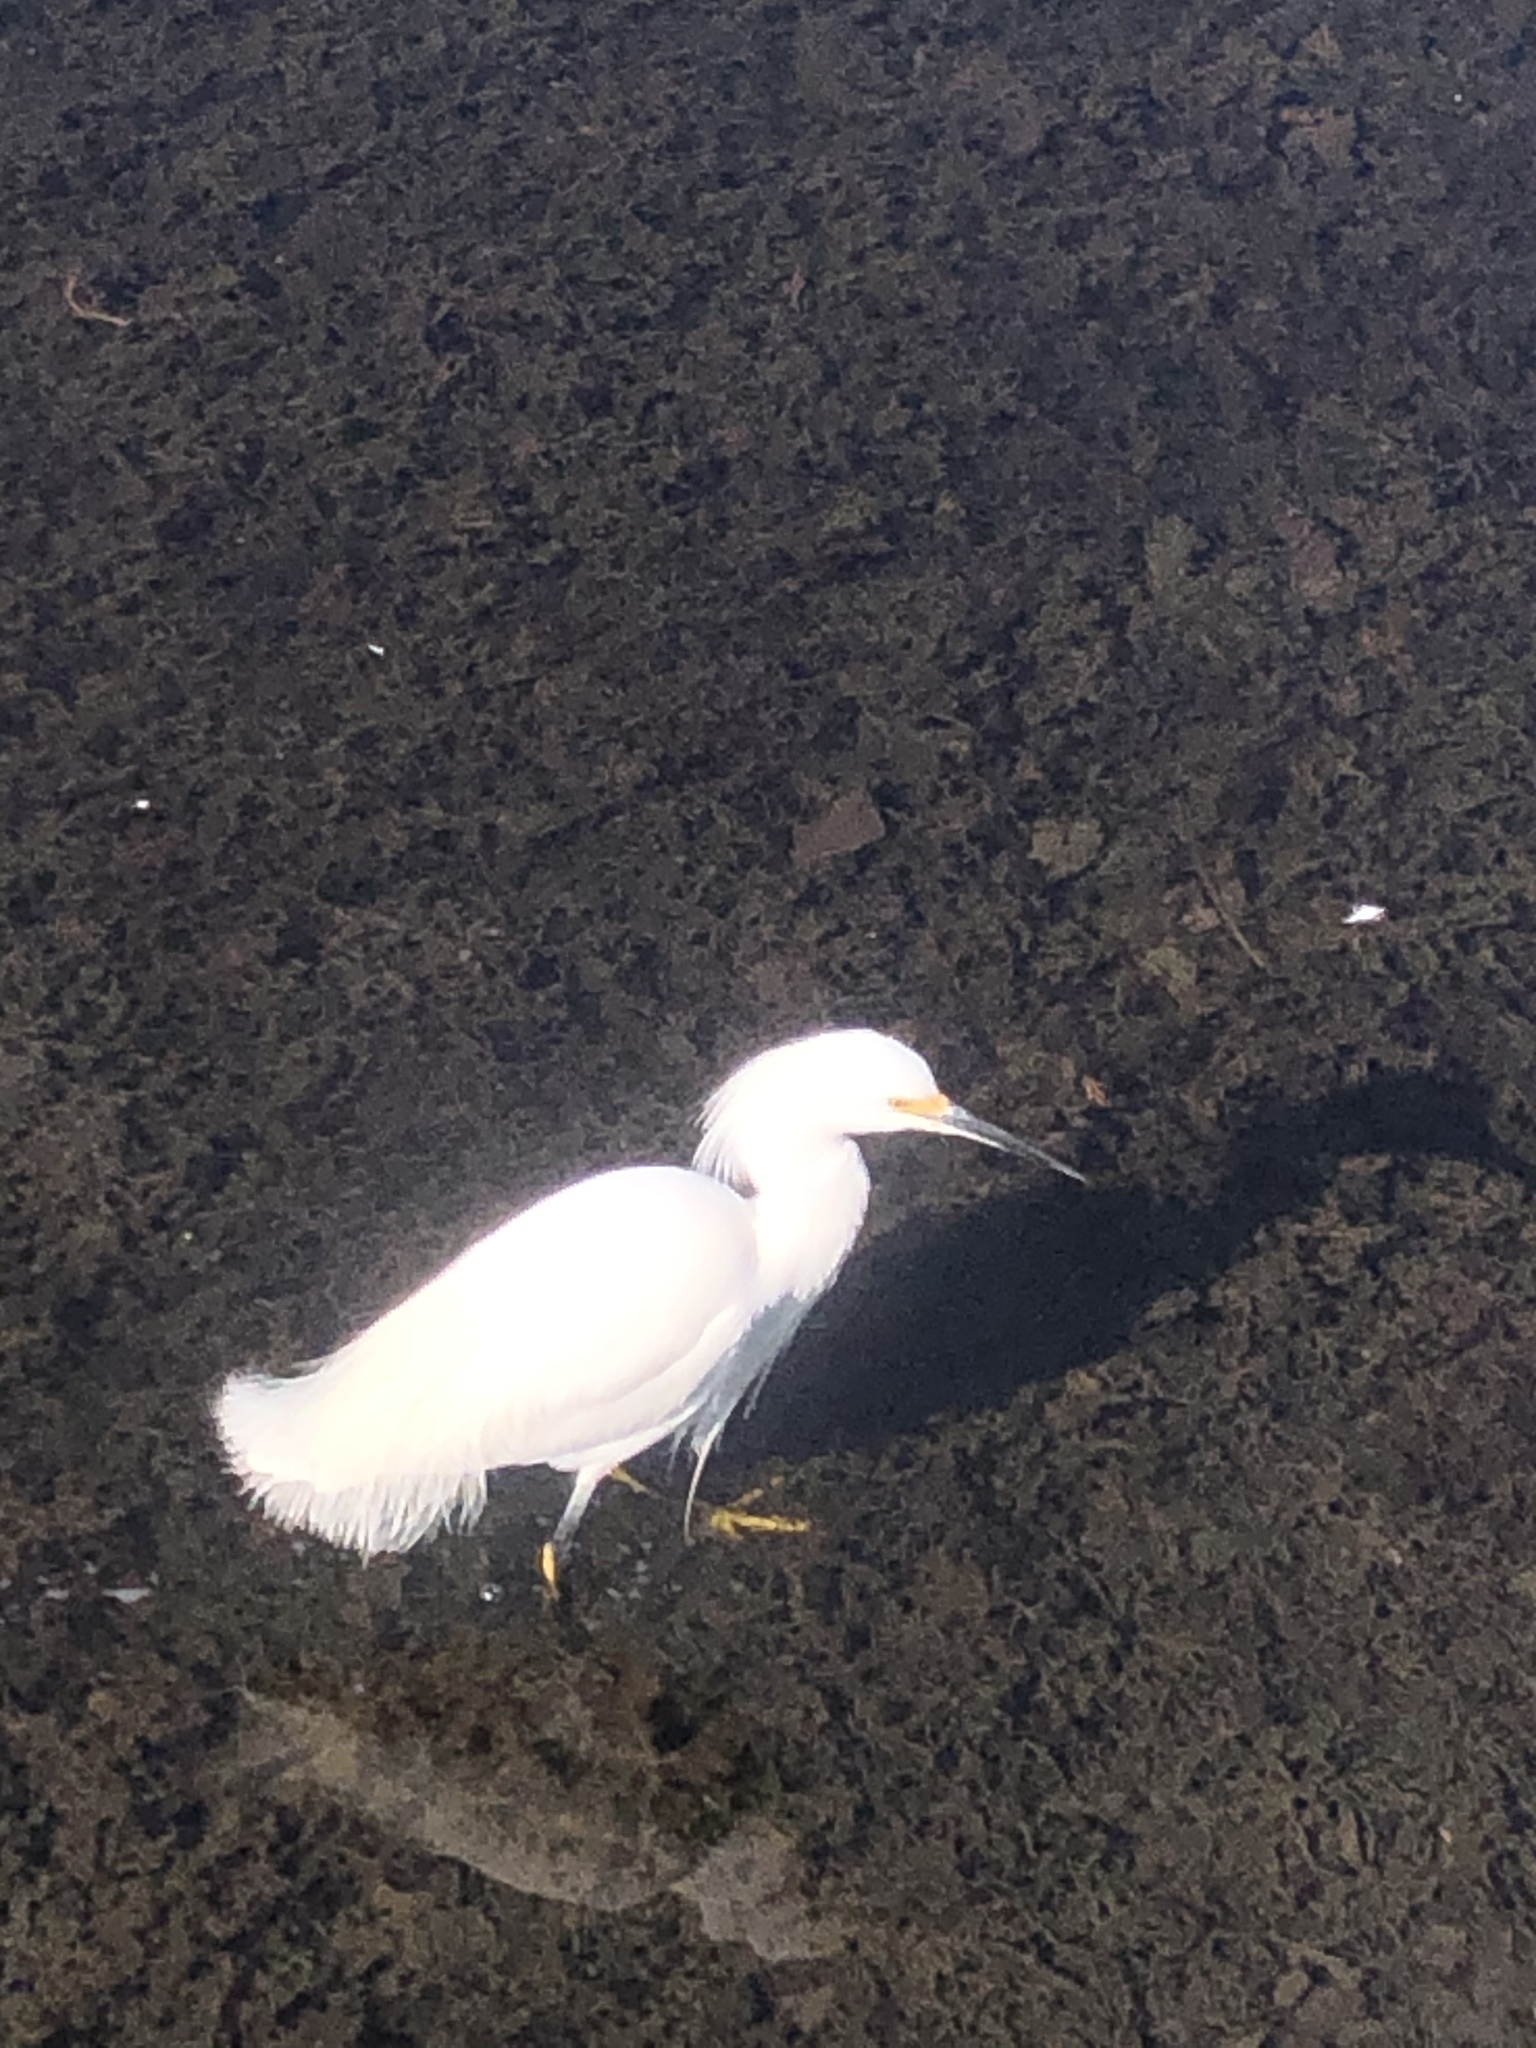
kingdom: Animalia
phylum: Chordata
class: Aves
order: Pelecaniformes
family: Ardeidae
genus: Egretta
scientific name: Egretta thula
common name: Snowy egret
